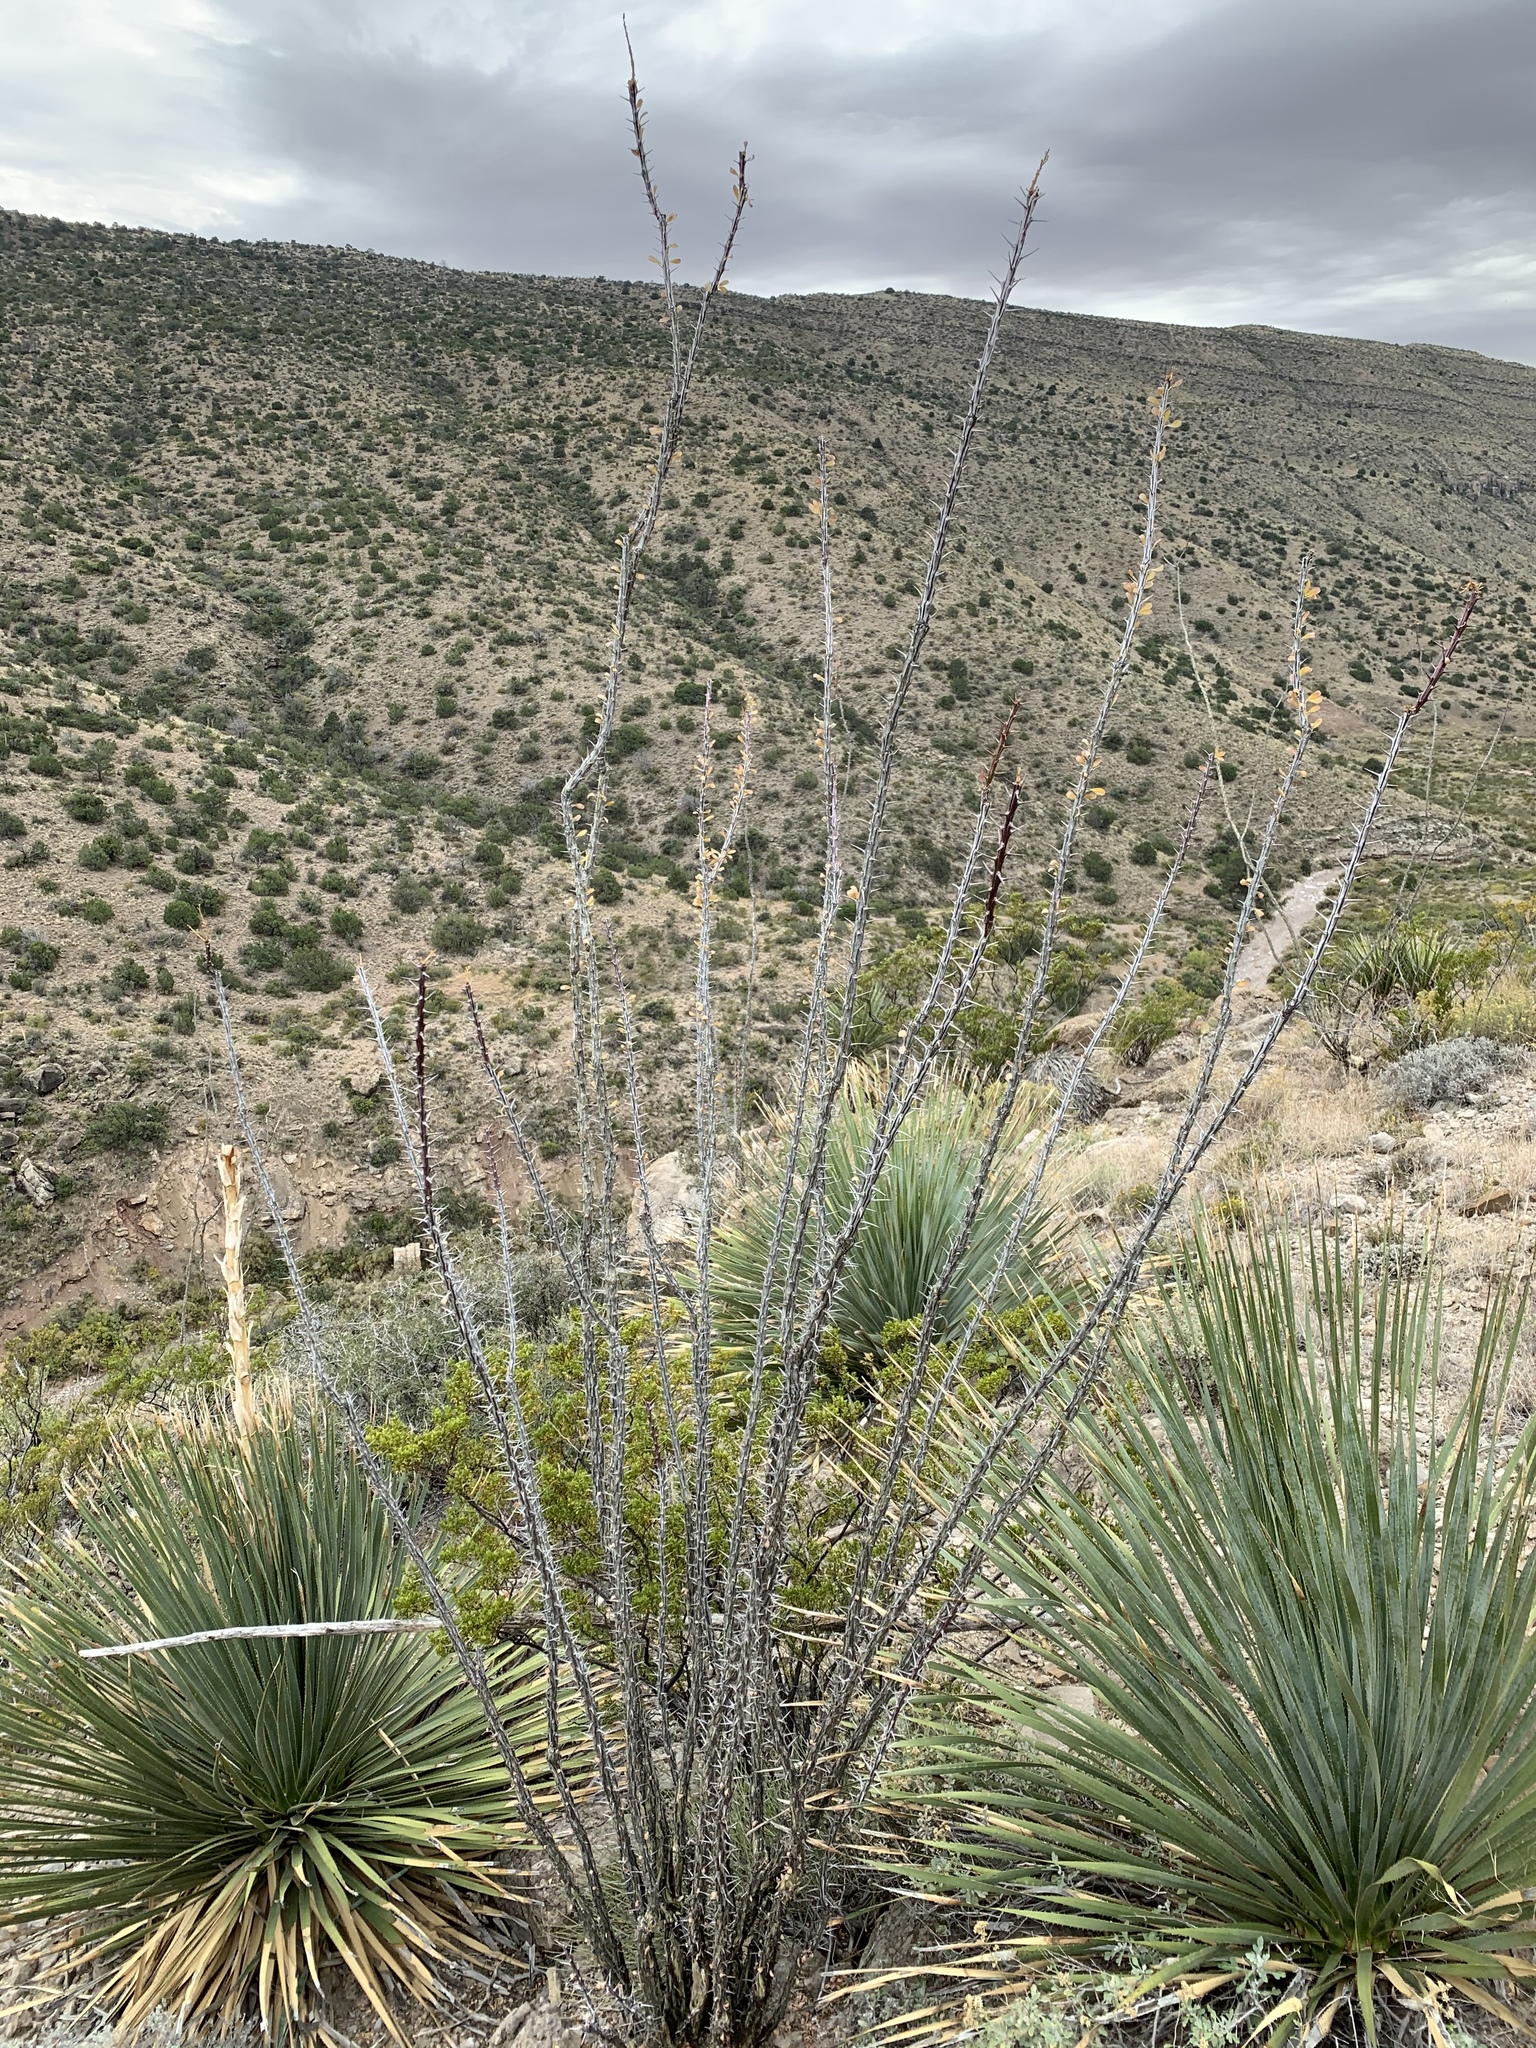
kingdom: Plantae
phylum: Tracheophyta
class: Magnoliopsida
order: Ericales
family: Fouquieriaceae
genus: Fouquieria
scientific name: Fouquieria splendens
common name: Vine-cactus
